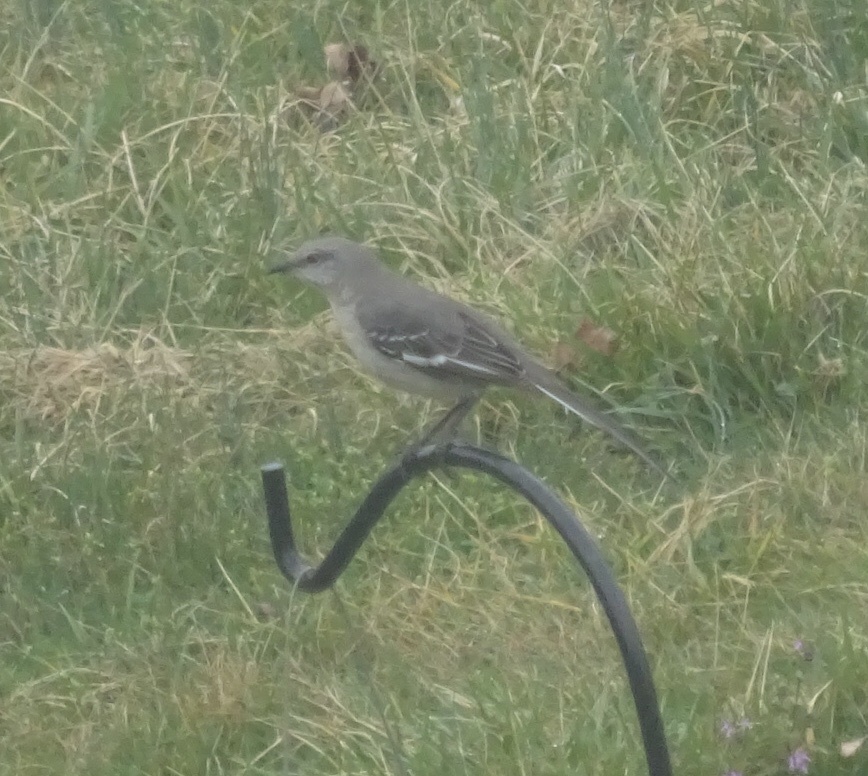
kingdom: Animalia
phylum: Chordata
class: Aves
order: Passeriformes
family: Mimidae
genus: Mimus
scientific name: Mimus polyglottos
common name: Northern mockingbird
